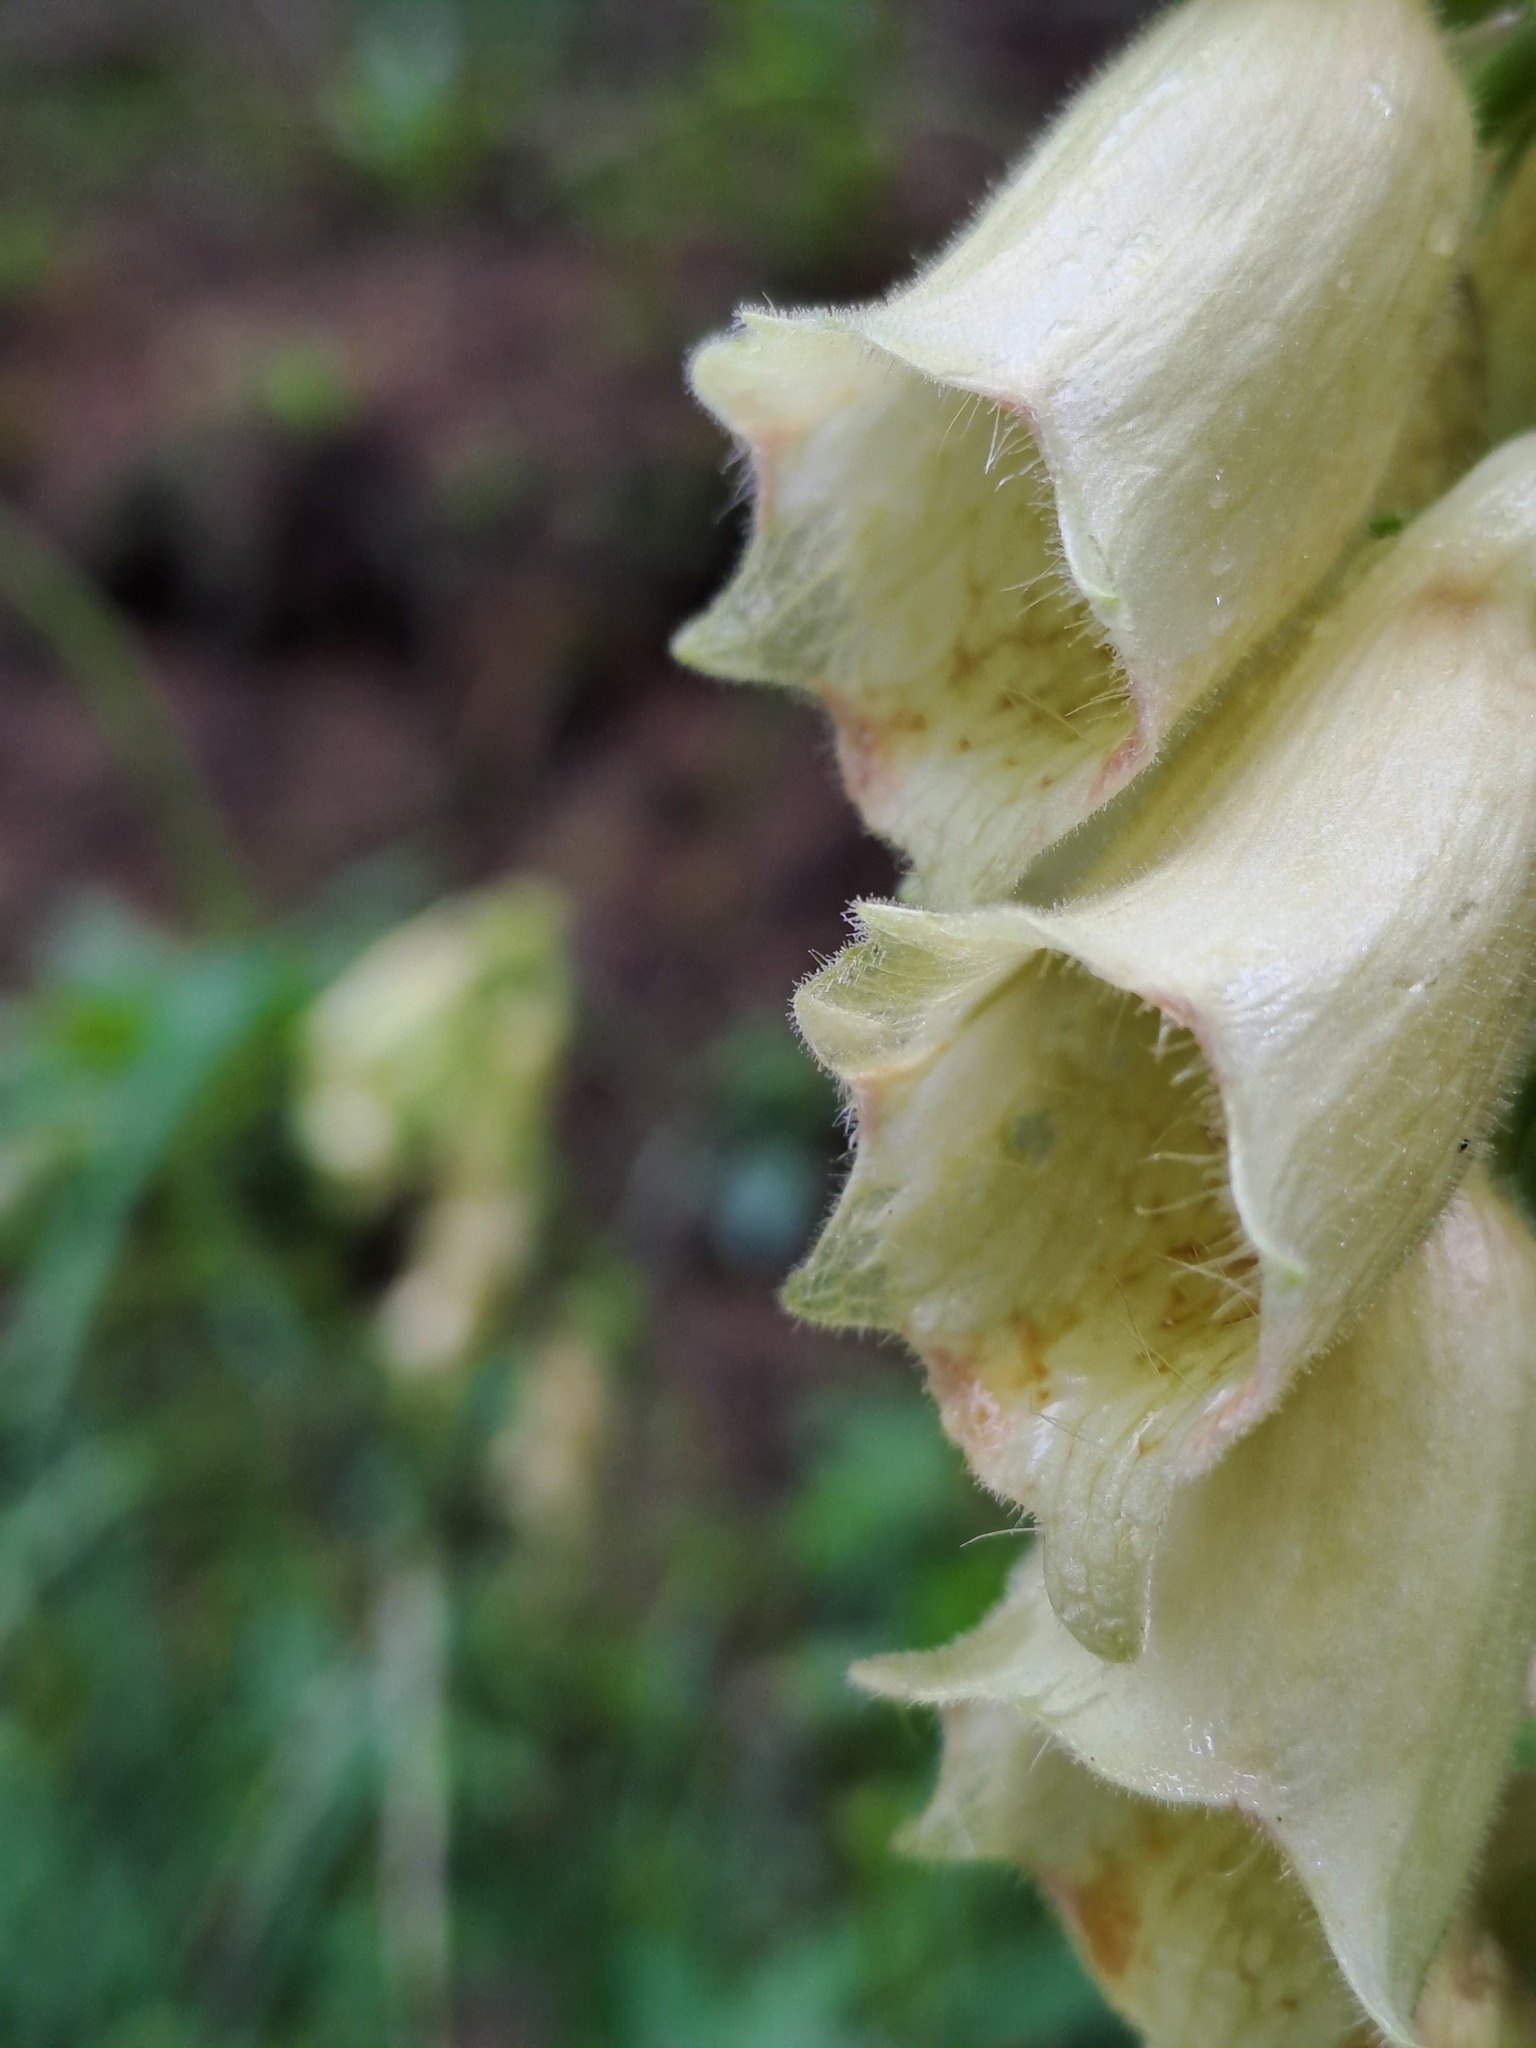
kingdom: Plantae
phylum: Tracheophyta
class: Magnoliopsida
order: Lamiales
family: Plantaginaceae
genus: Digitalis
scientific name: Digitalis grandiflora
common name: Yellow foxglove
